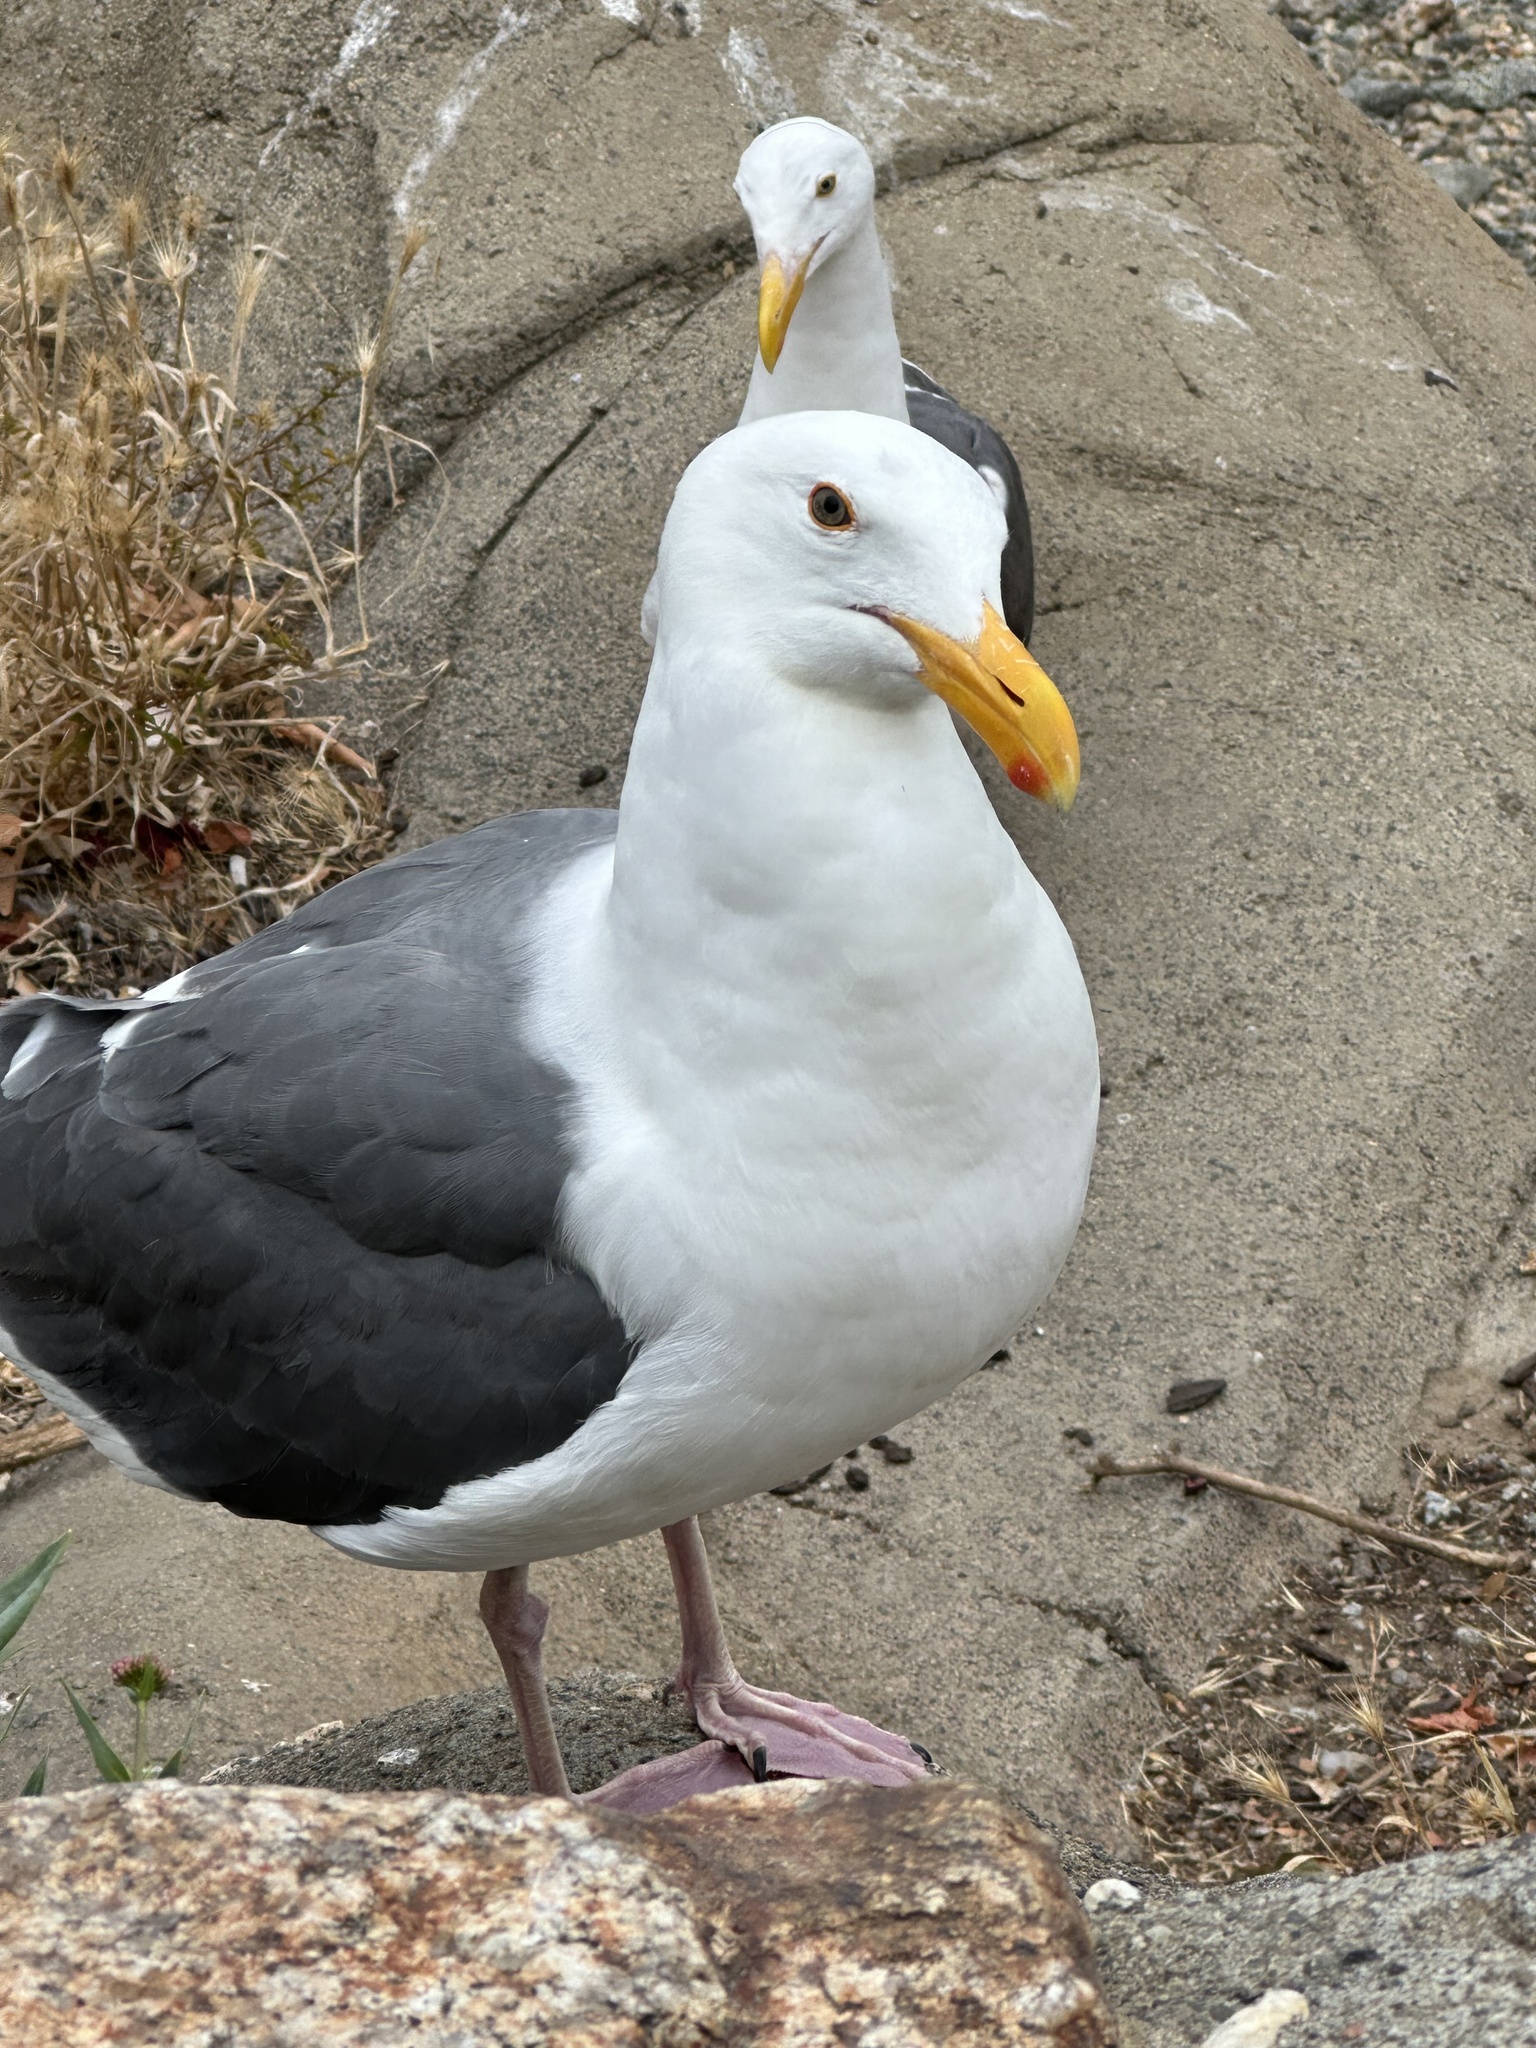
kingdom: Animalia
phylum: Chordata
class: Aves
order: Charadriiformes
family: Laridae
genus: Larus
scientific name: Larus occidentalis
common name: Western gull
